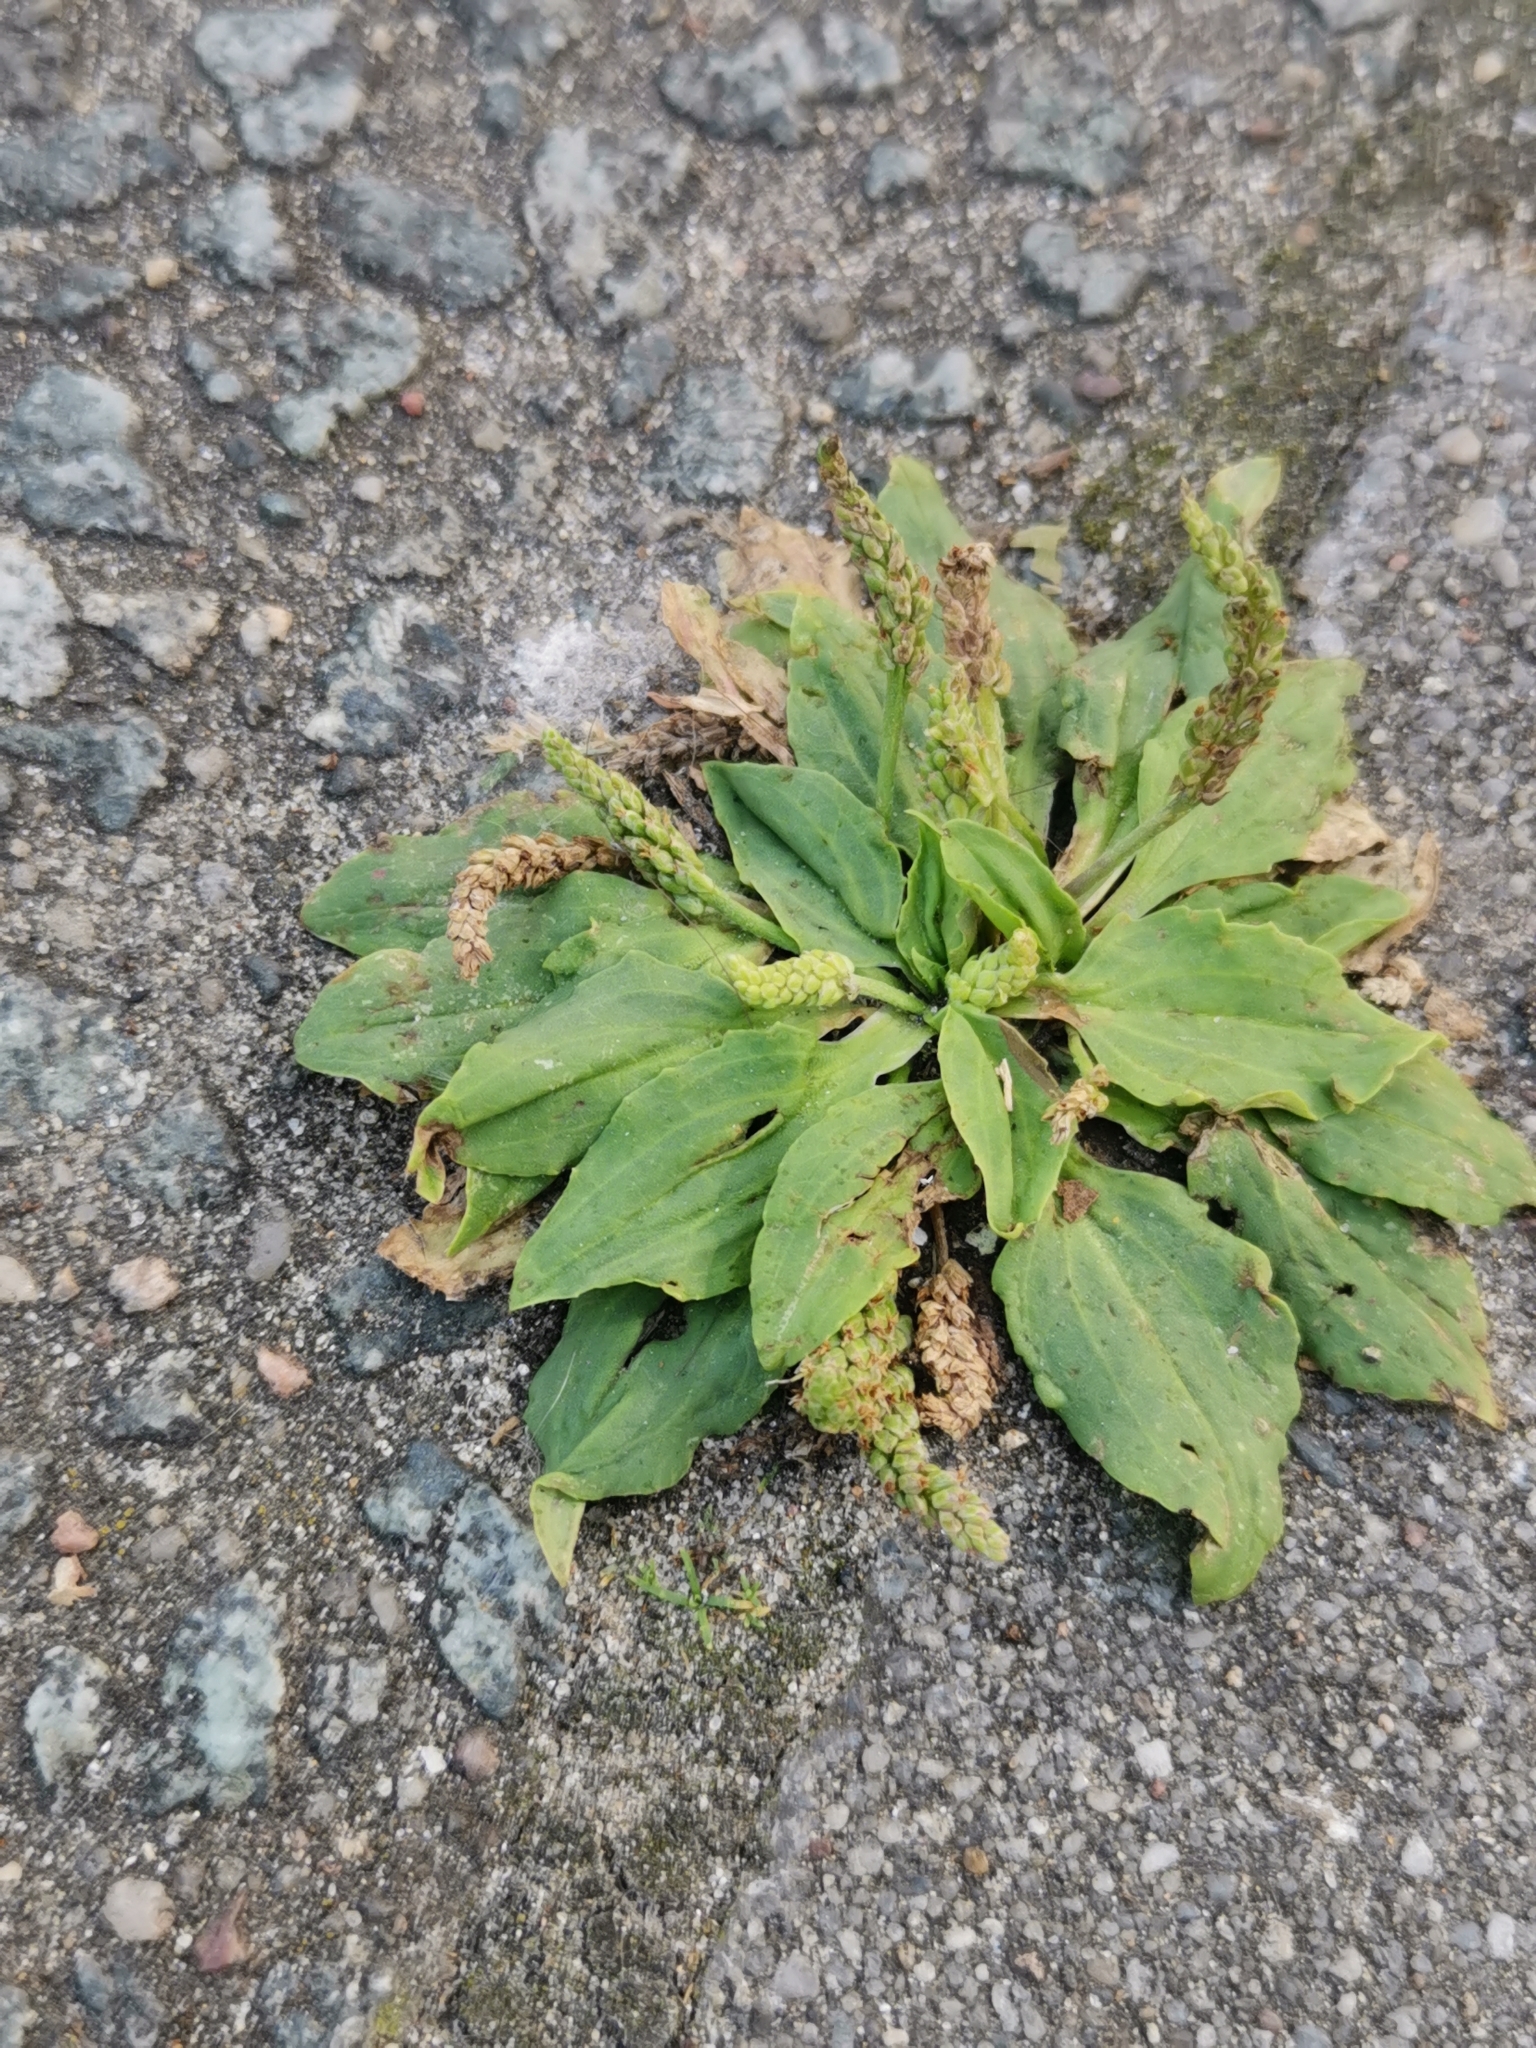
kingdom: Plantae
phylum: Tracheophyta
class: Magnoliopsida
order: Lamiales
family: Plantaginaceae
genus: Plantago
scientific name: Plantago major
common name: Common plantain
